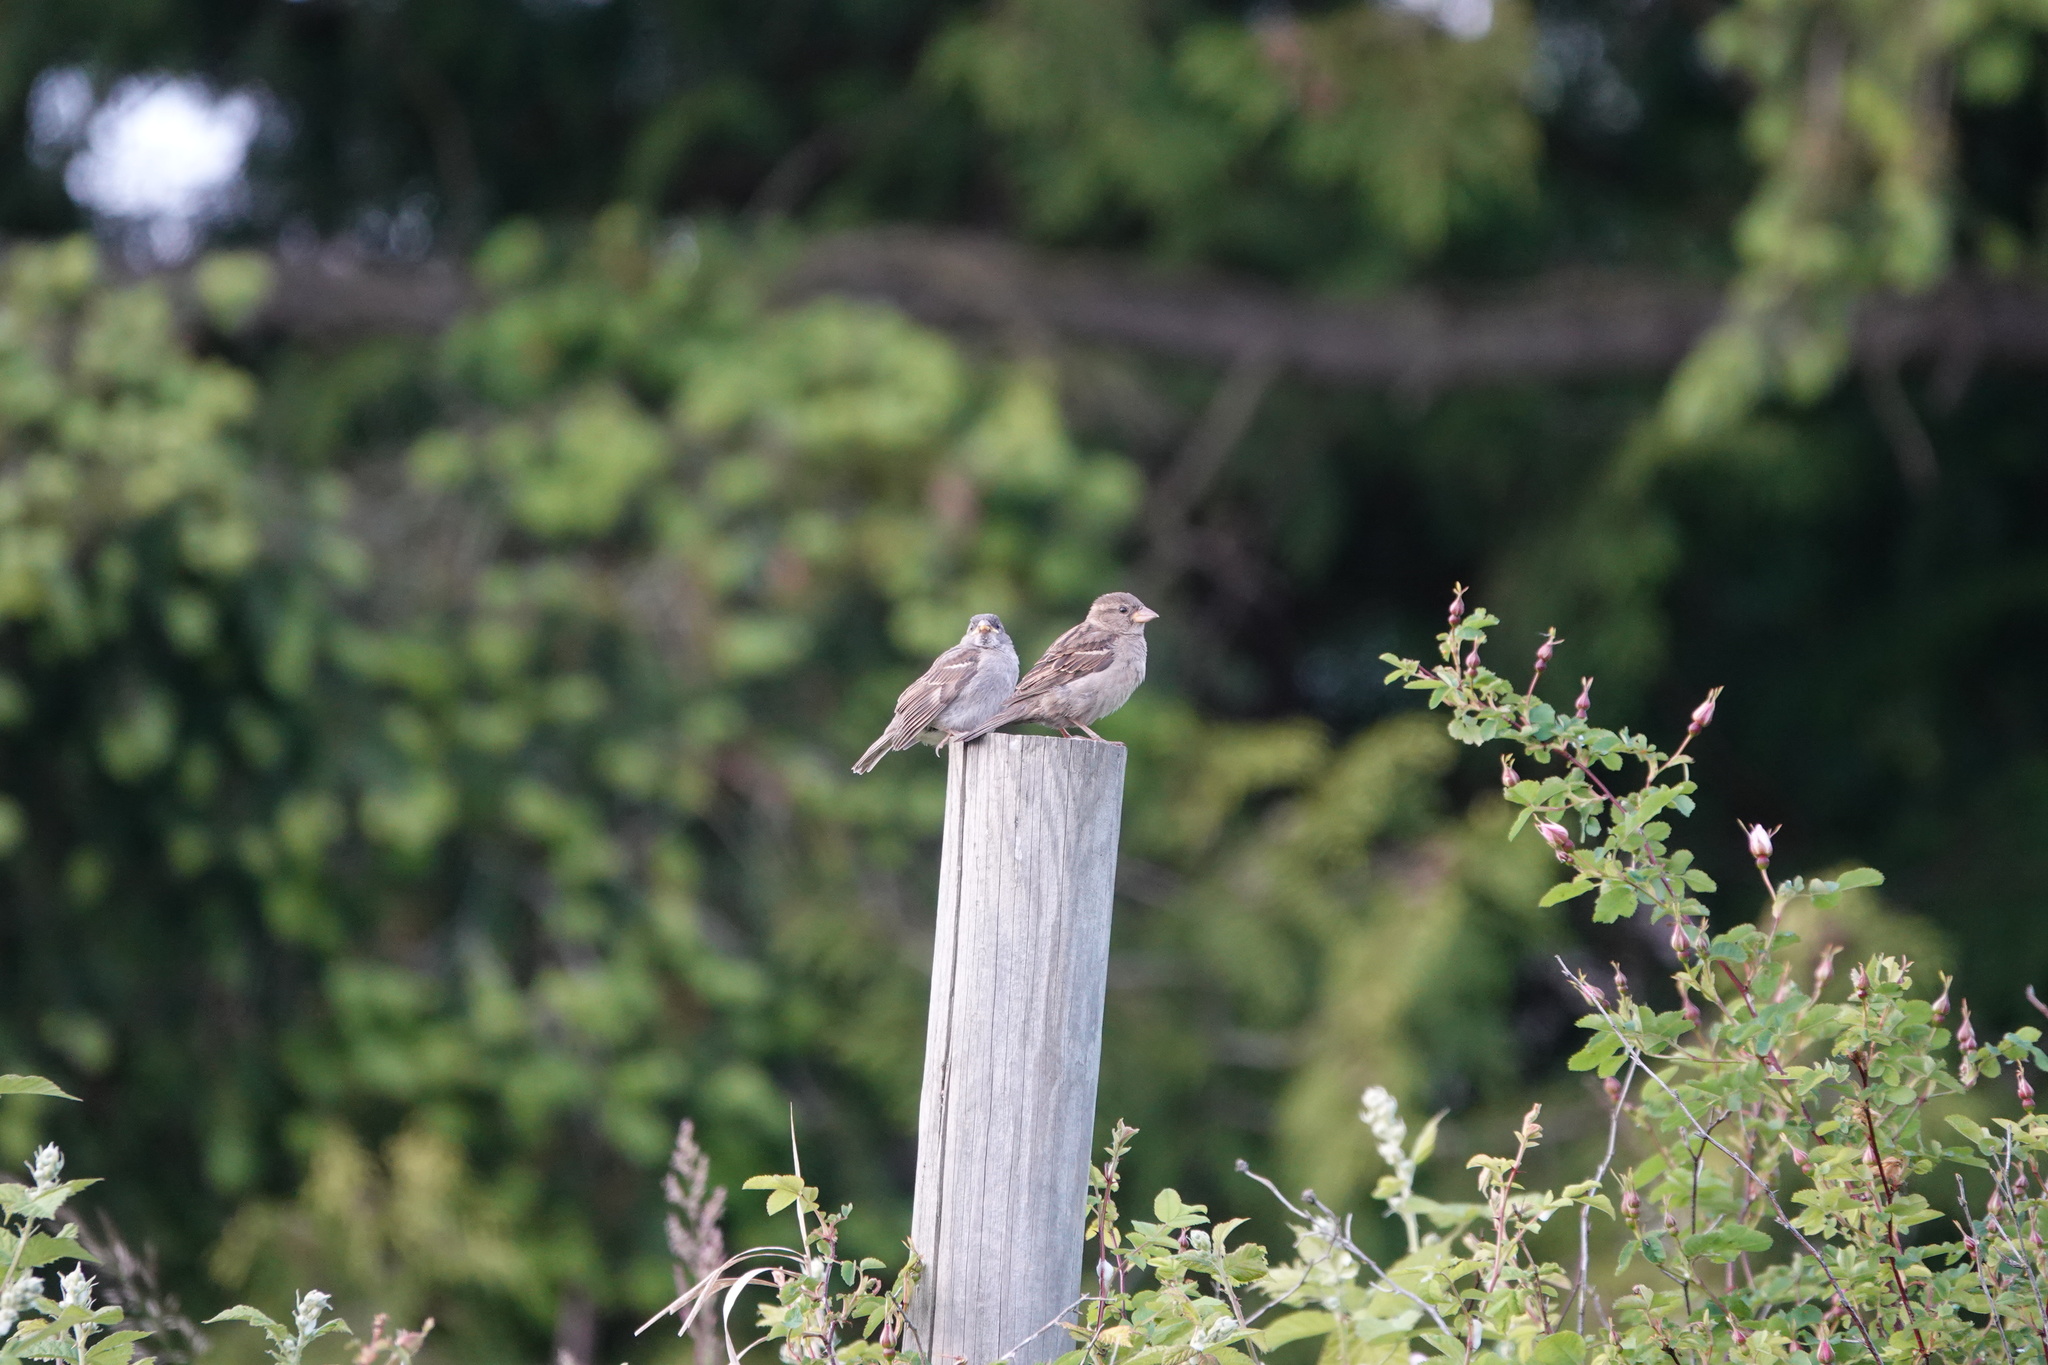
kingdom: Animalia
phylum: Chordata
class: Aves
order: Passeriformes
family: Passeridae
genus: Passer
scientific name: Passer domesticus
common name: House sparrow
